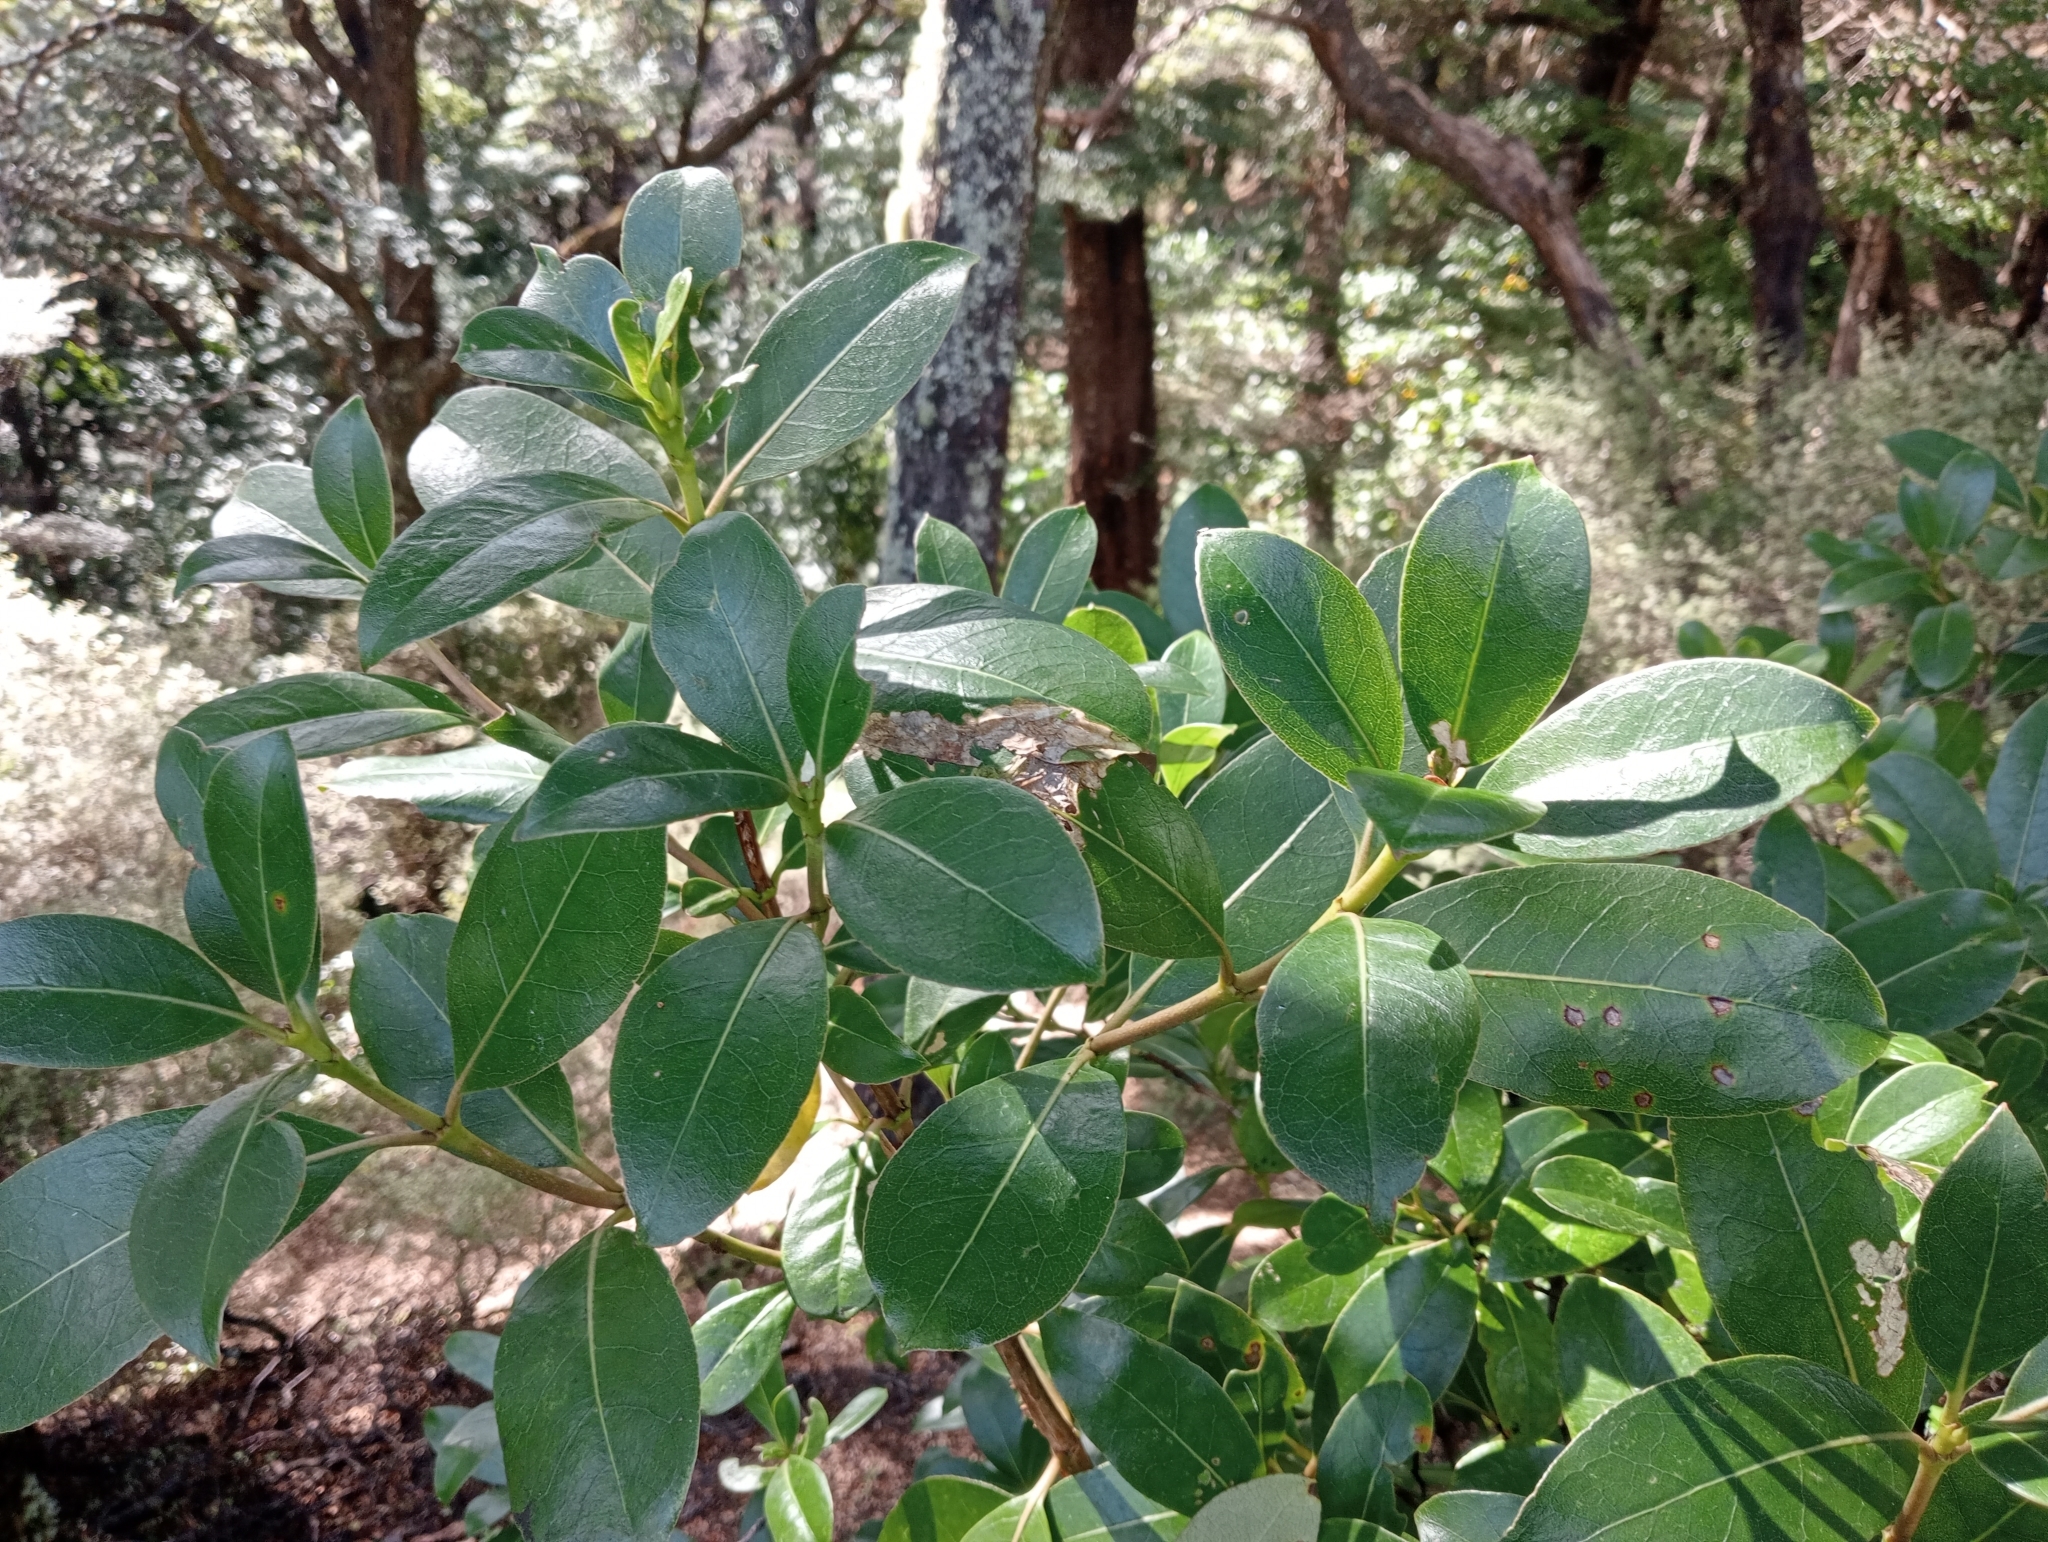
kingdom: Plantae
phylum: Tracheophyta
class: Magnoliopsida
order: Gentianales
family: Rubiaceae
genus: Coprosma
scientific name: Coprosma lucida
